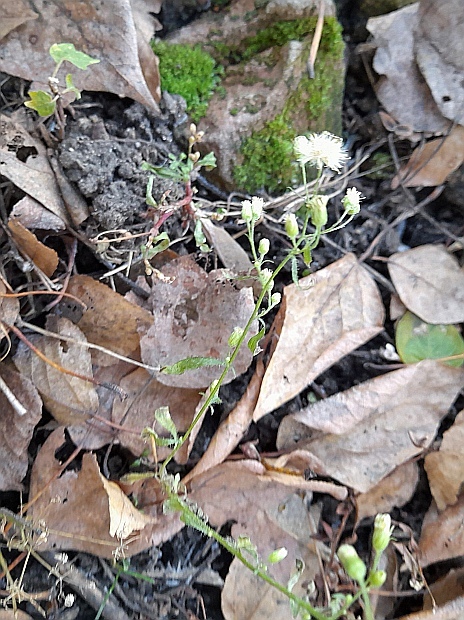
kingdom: Plantae
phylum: Tracheophyta
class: Magnoliopsida
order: Asterales
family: Asteraceae
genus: Erigeron
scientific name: Erigeron canadensis
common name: Canadian fleabane
